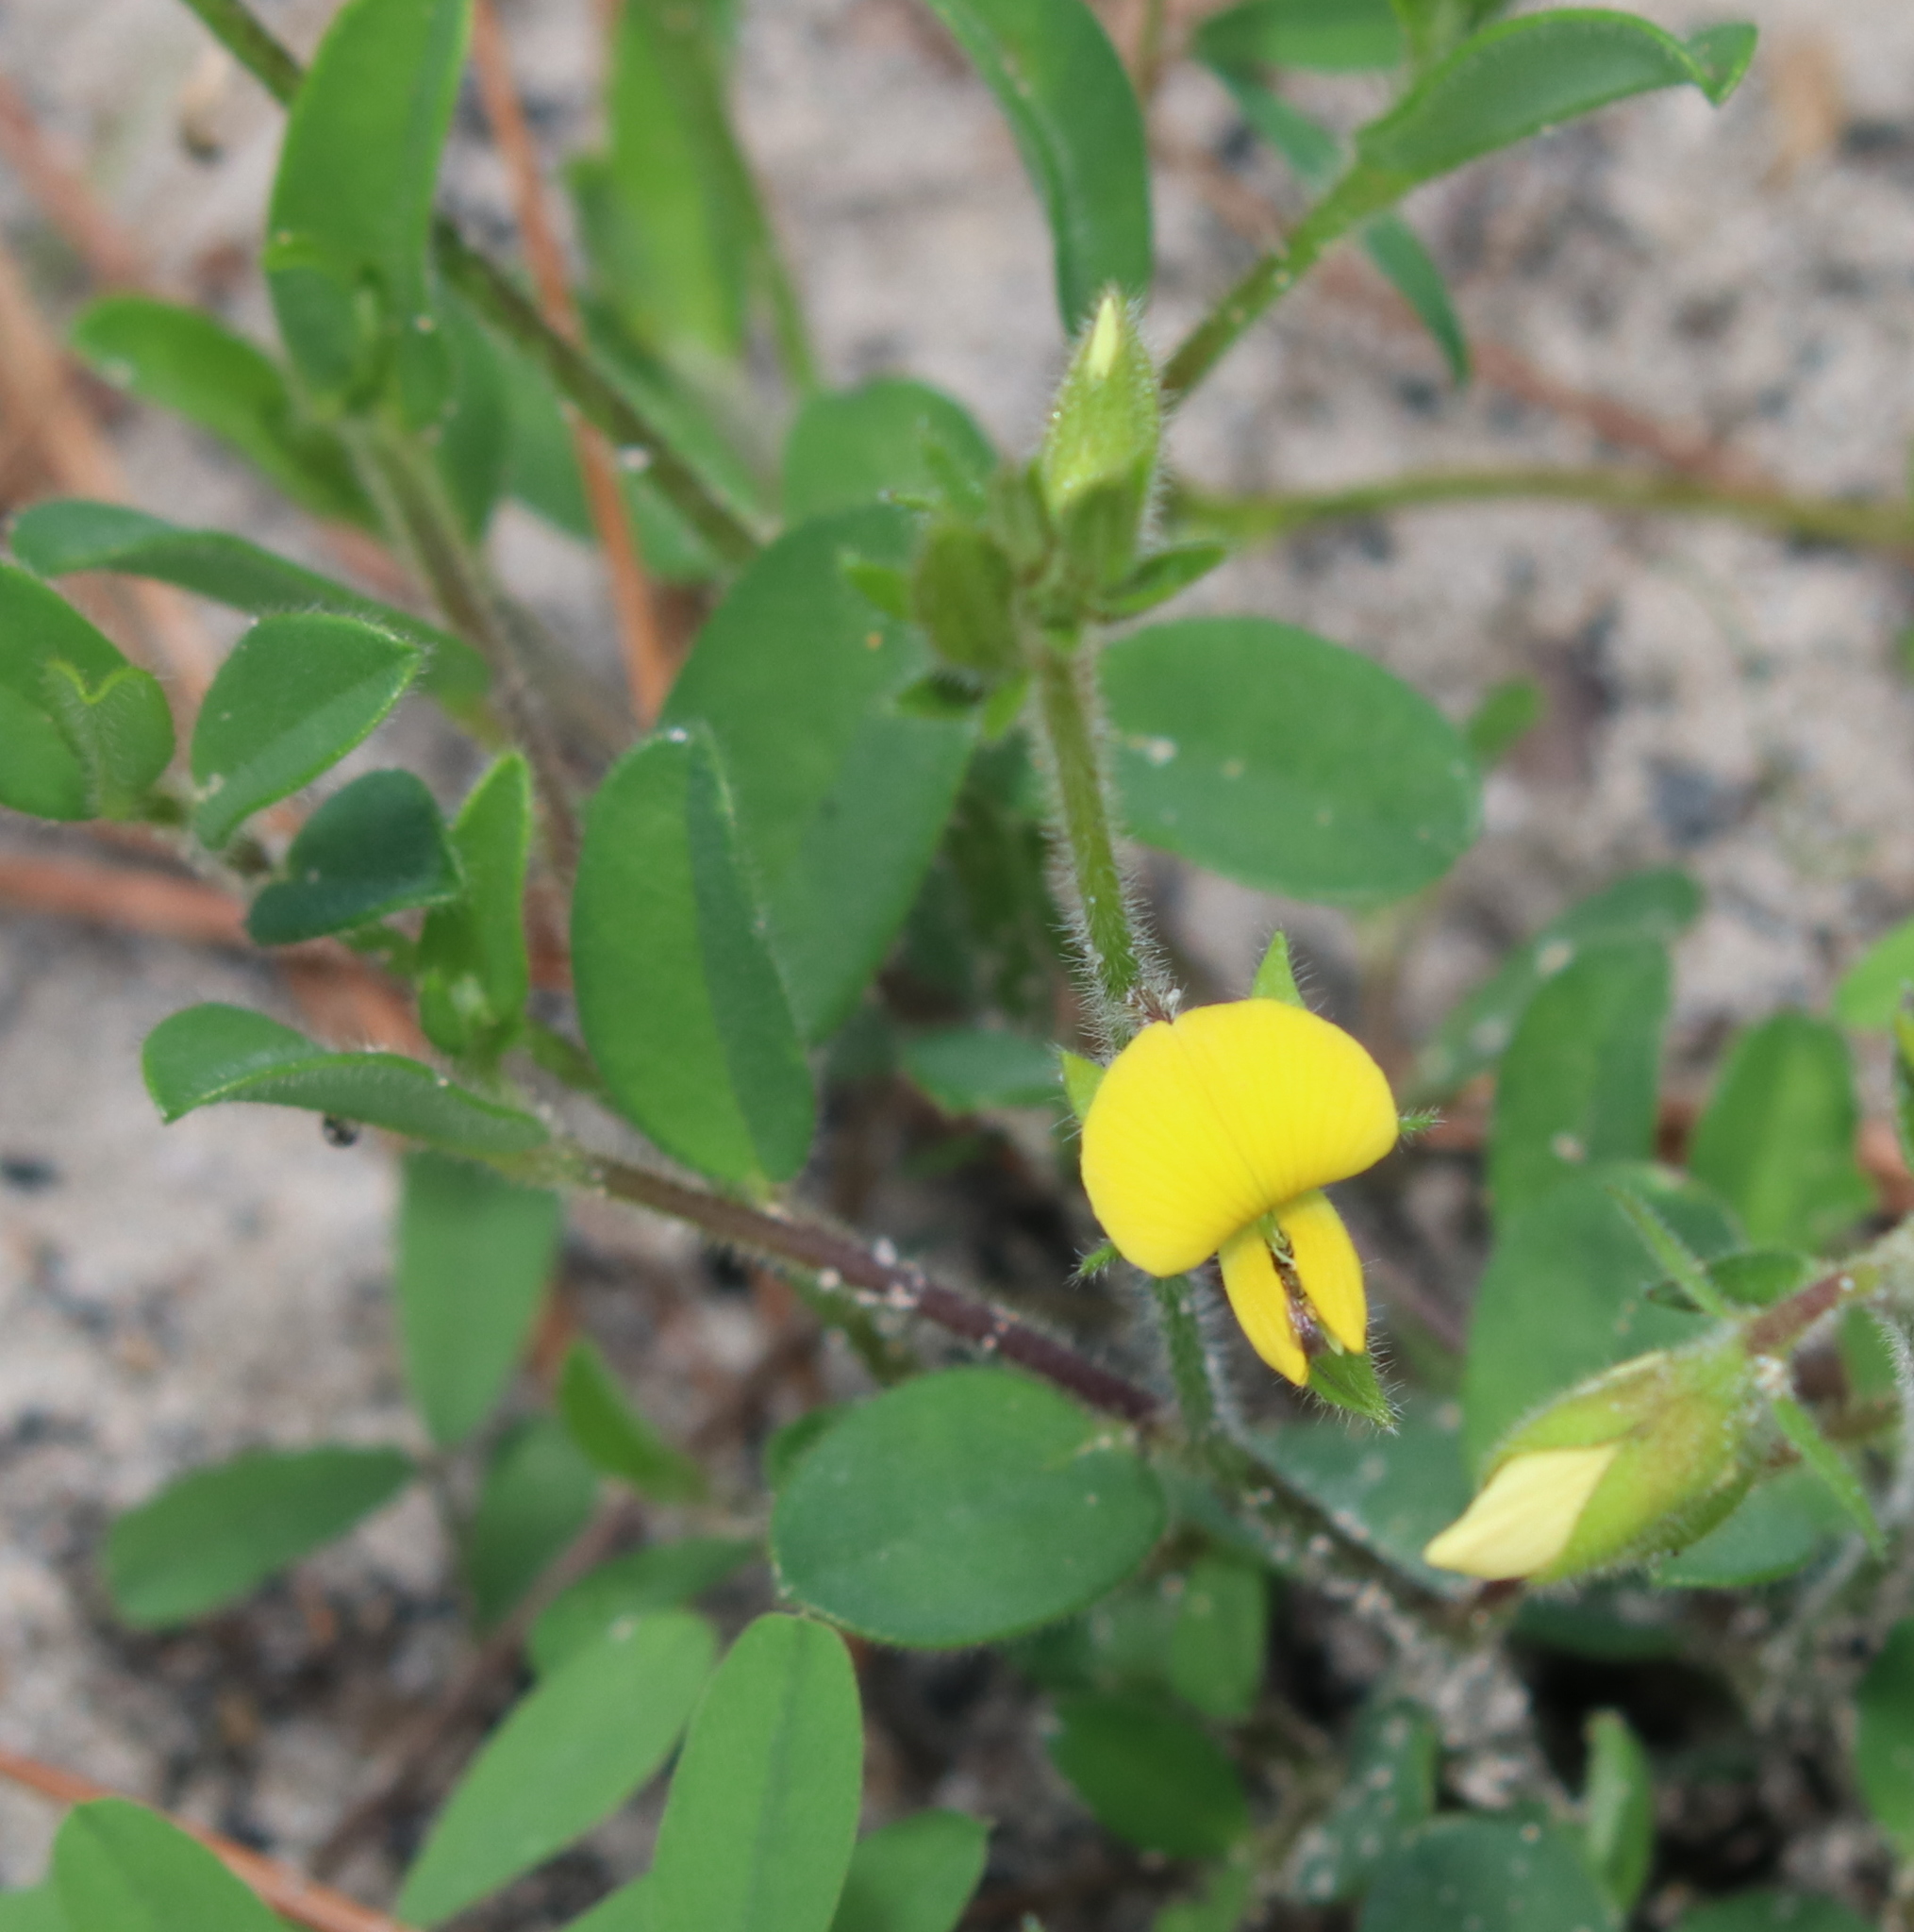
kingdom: Plantae
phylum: Tracheophyta
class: Magnoliopsida
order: Fabales
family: Fabaceae
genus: Crotalaria
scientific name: Crotalaria rotundifolia
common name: Prostrate rattlebox
